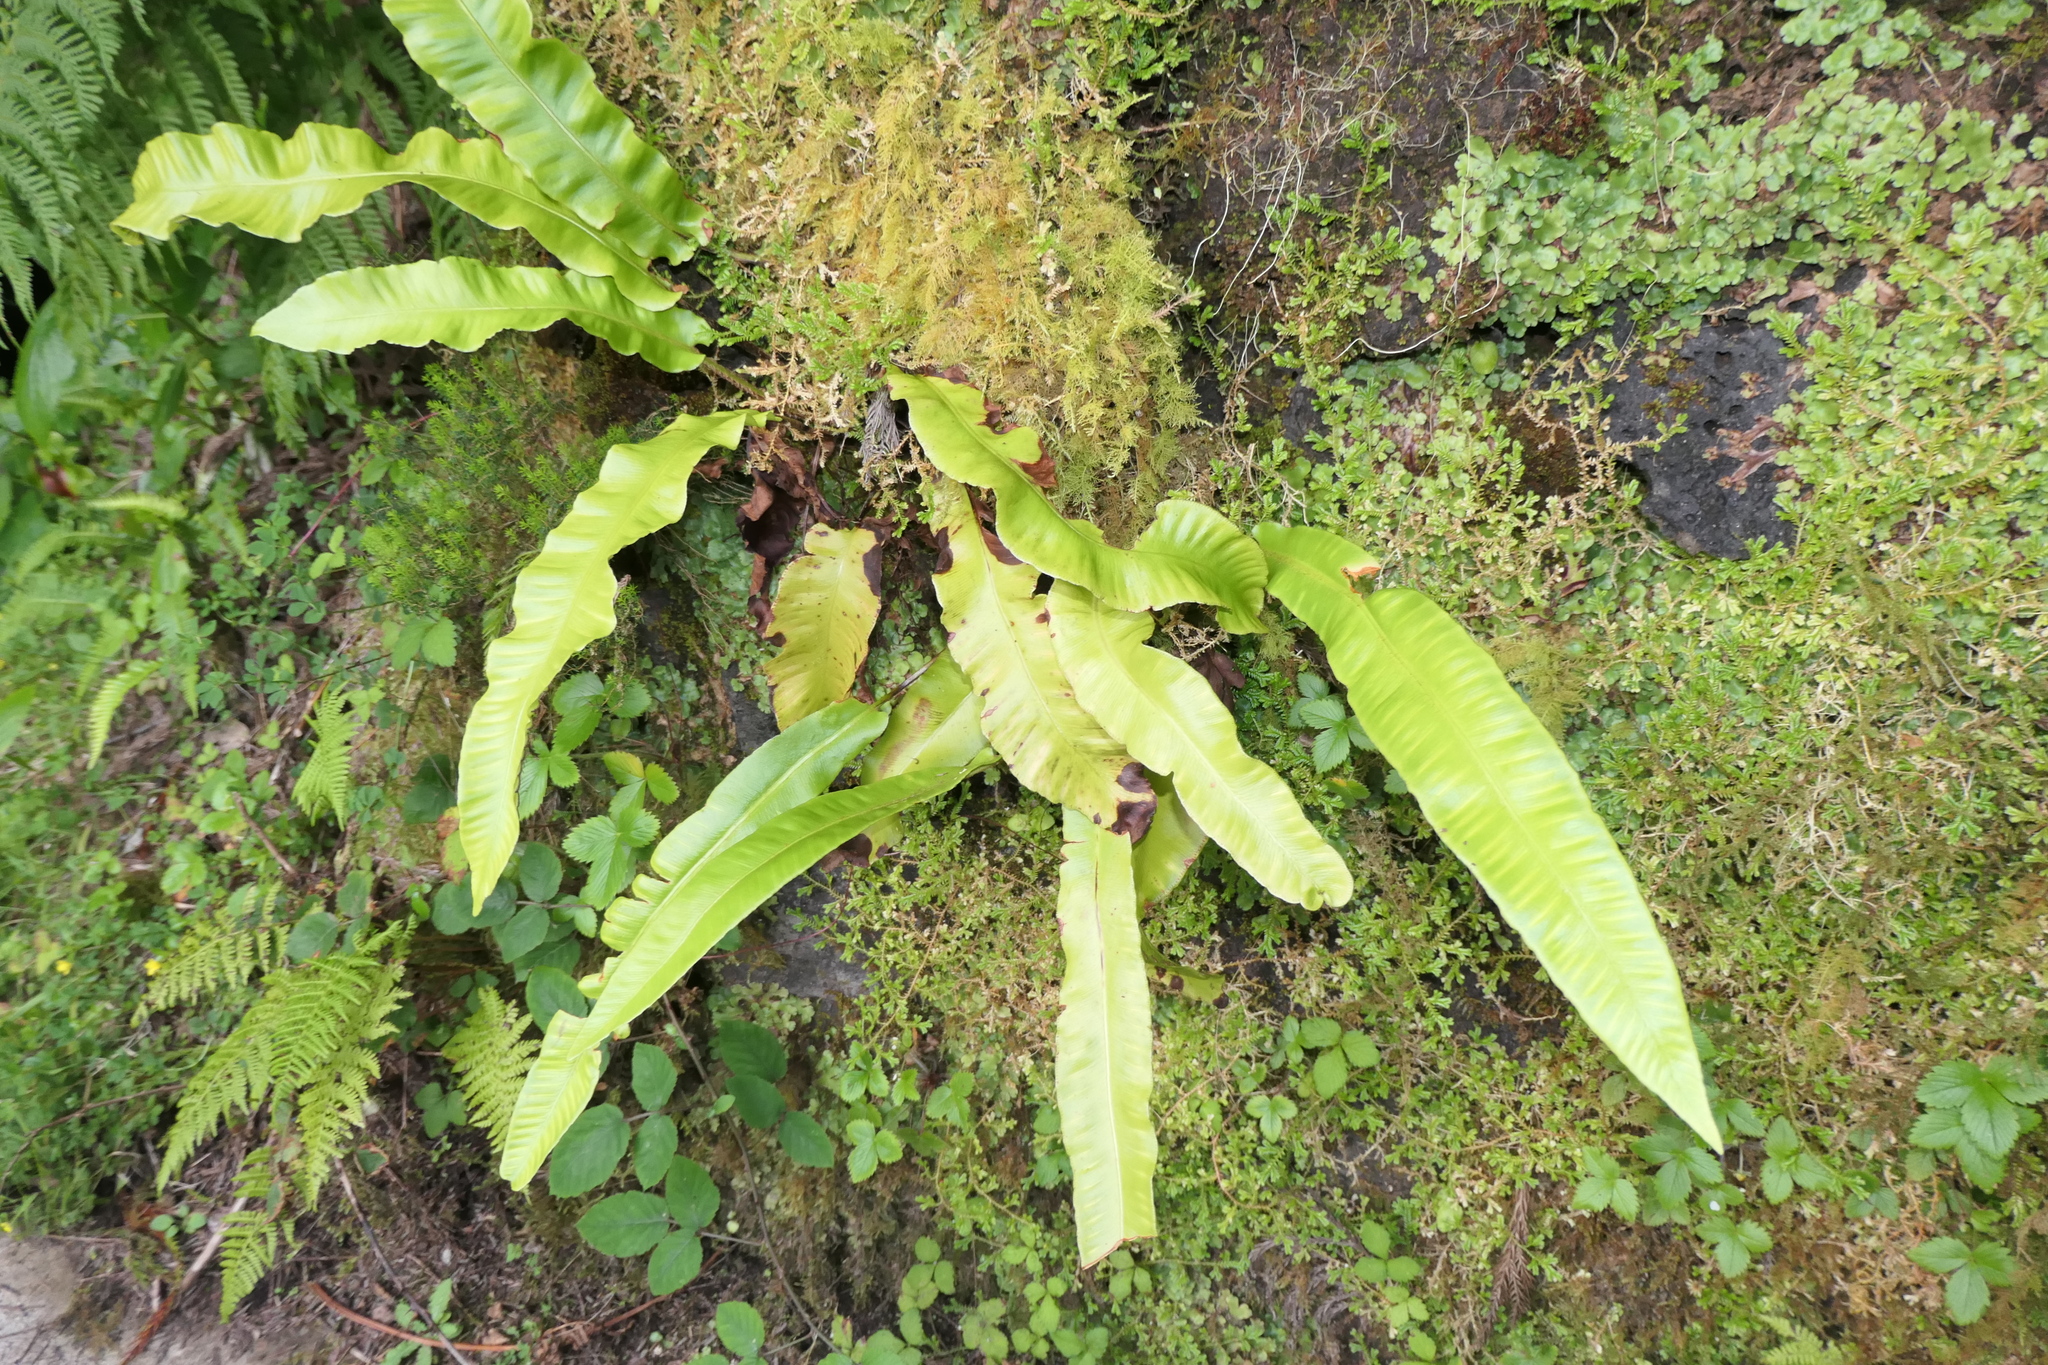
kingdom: Plantae
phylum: Tracheophyta
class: Polypodiopsida
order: Polypodiales
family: Aspleniaceae
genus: Asplenium
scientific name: Asplenium scolopendrium
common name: Hart's-tongue fern
